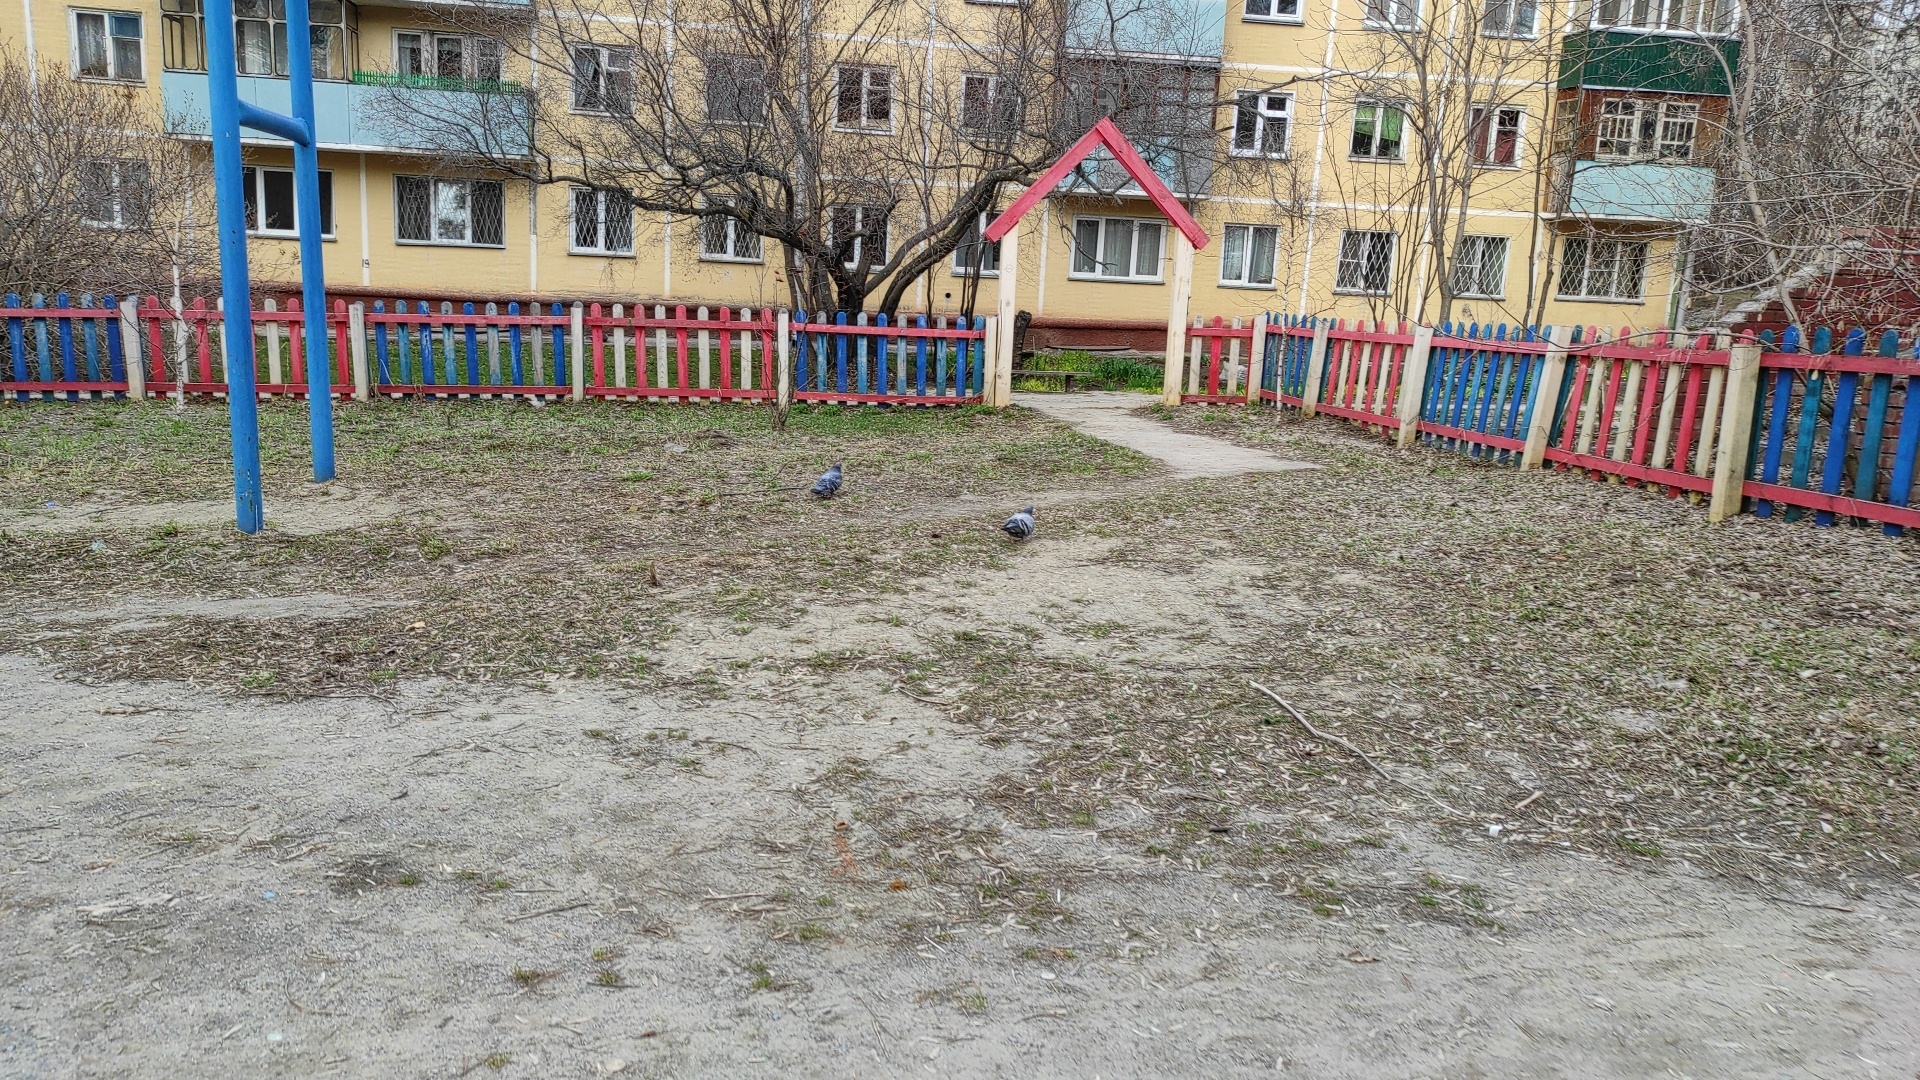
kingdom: Animalia
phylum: Chordata
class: Aves
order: Columbiformes
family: Columbidae
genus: Columba
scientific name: Columba livia
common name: Rock pigeon
